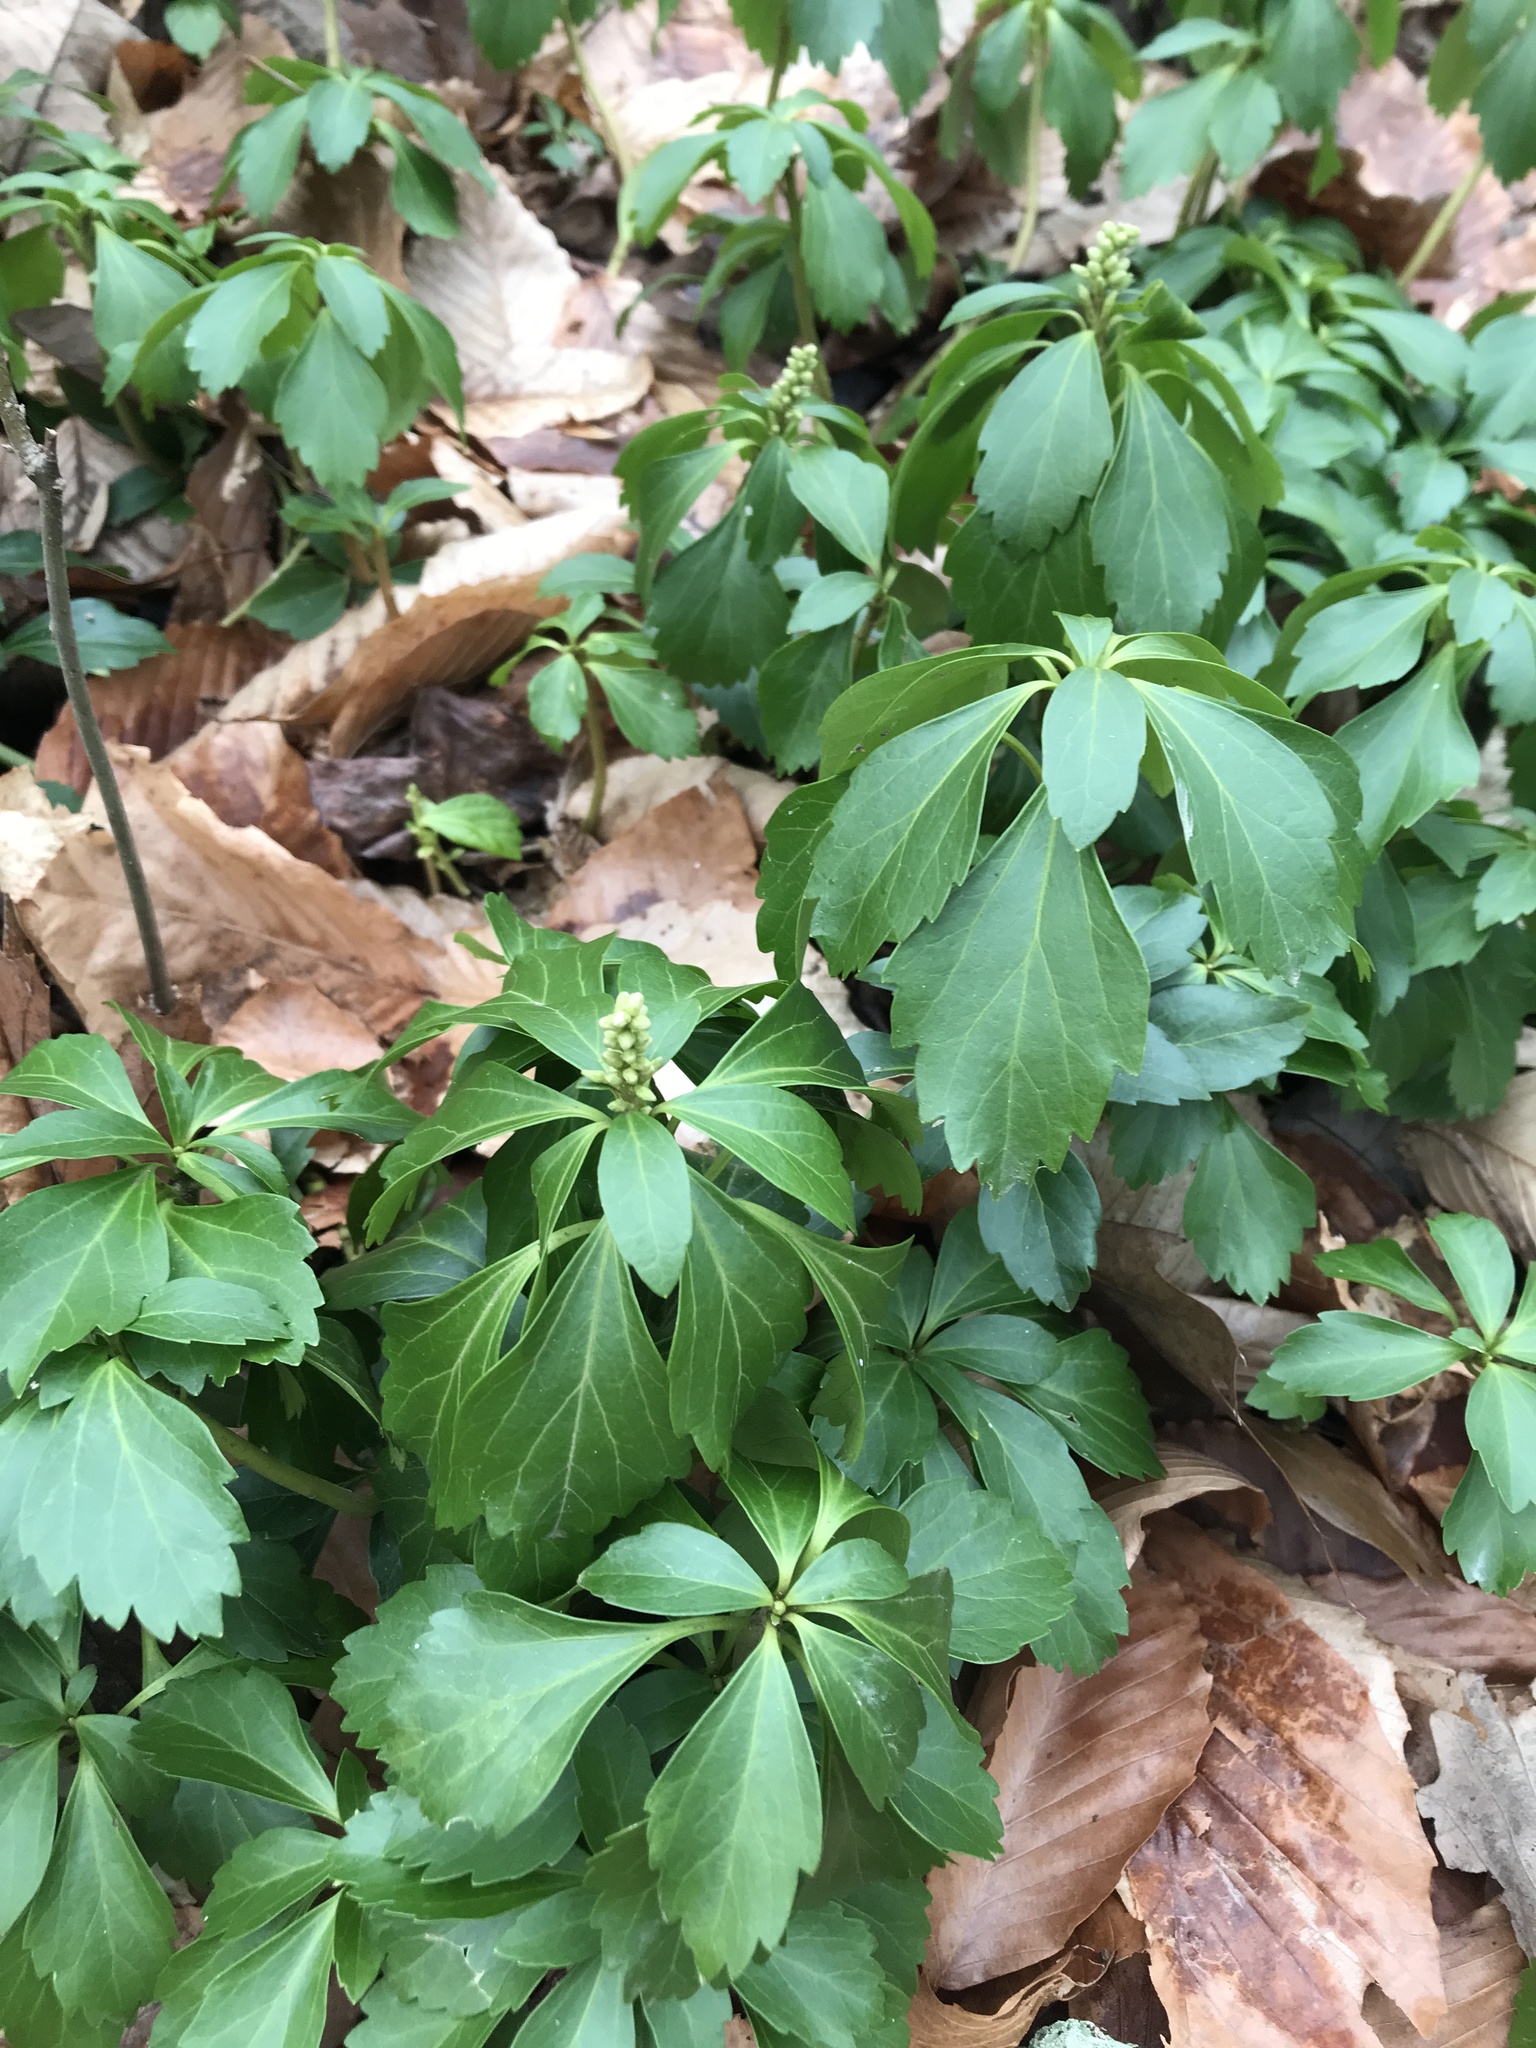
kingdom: Plantae
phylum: Tracheophyta
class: Magnoliopsida
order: Buxales
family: Buxaceae
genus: Pachysandra
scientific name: Pachysandra terminalis
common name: Japanese pachysandra
